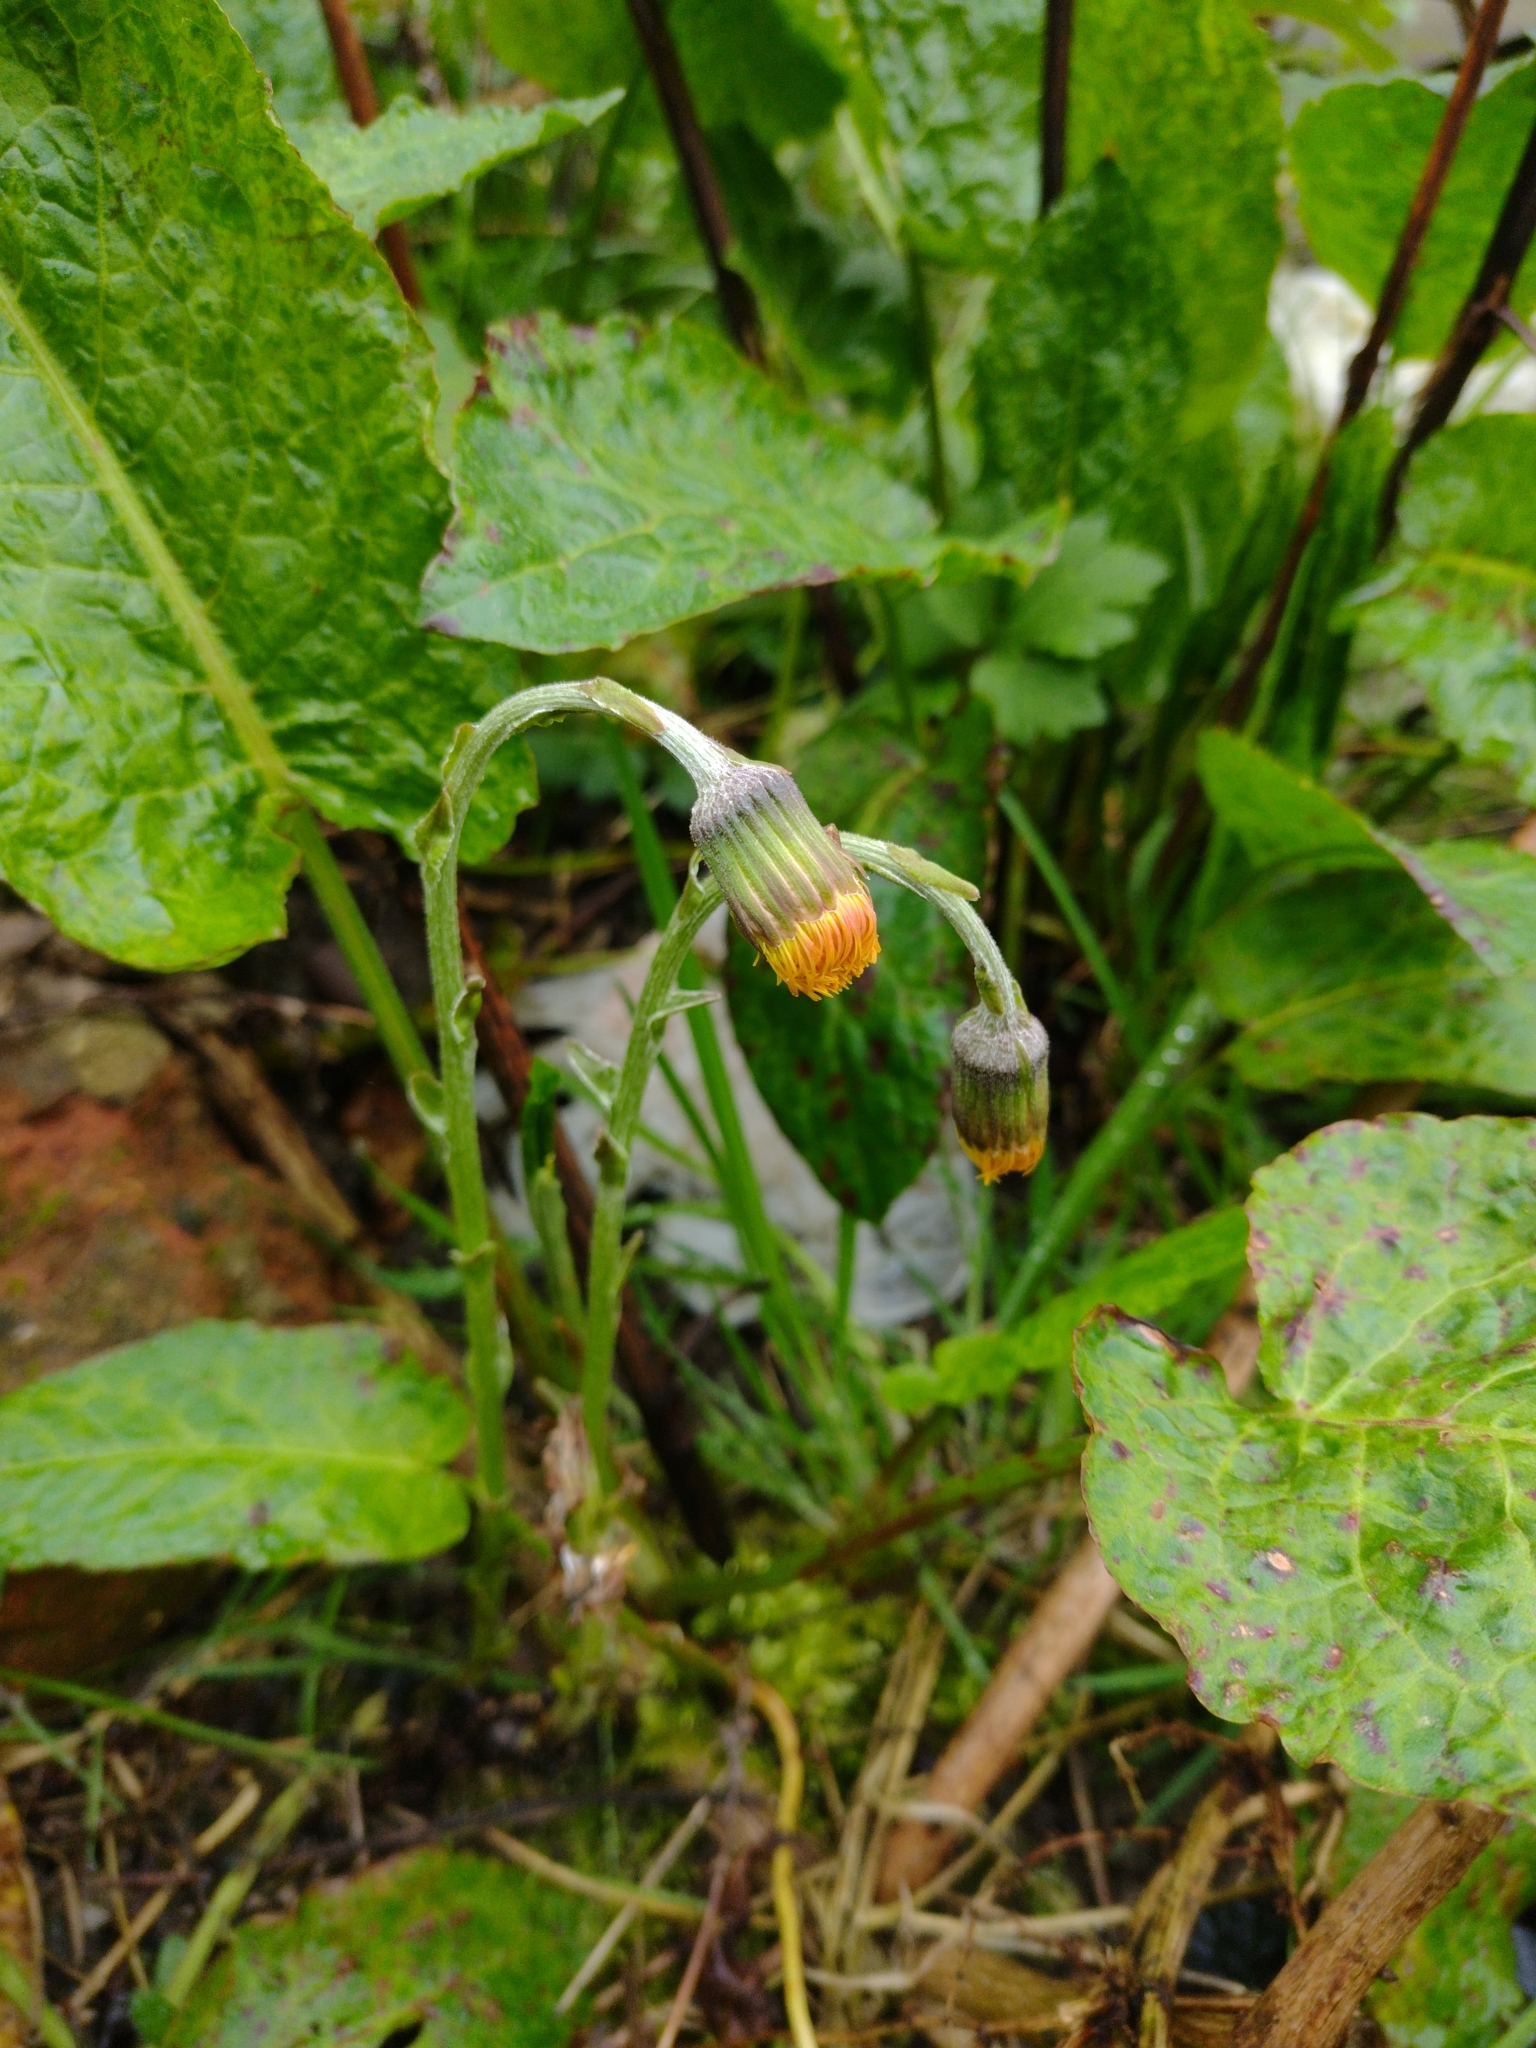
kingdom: Plantae
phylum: Tracheophyta
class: Magnoliopsida
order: Asterales
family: Asteraceae
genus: Tussilago
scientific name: Tussilago farfara
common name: Coltsfoot
